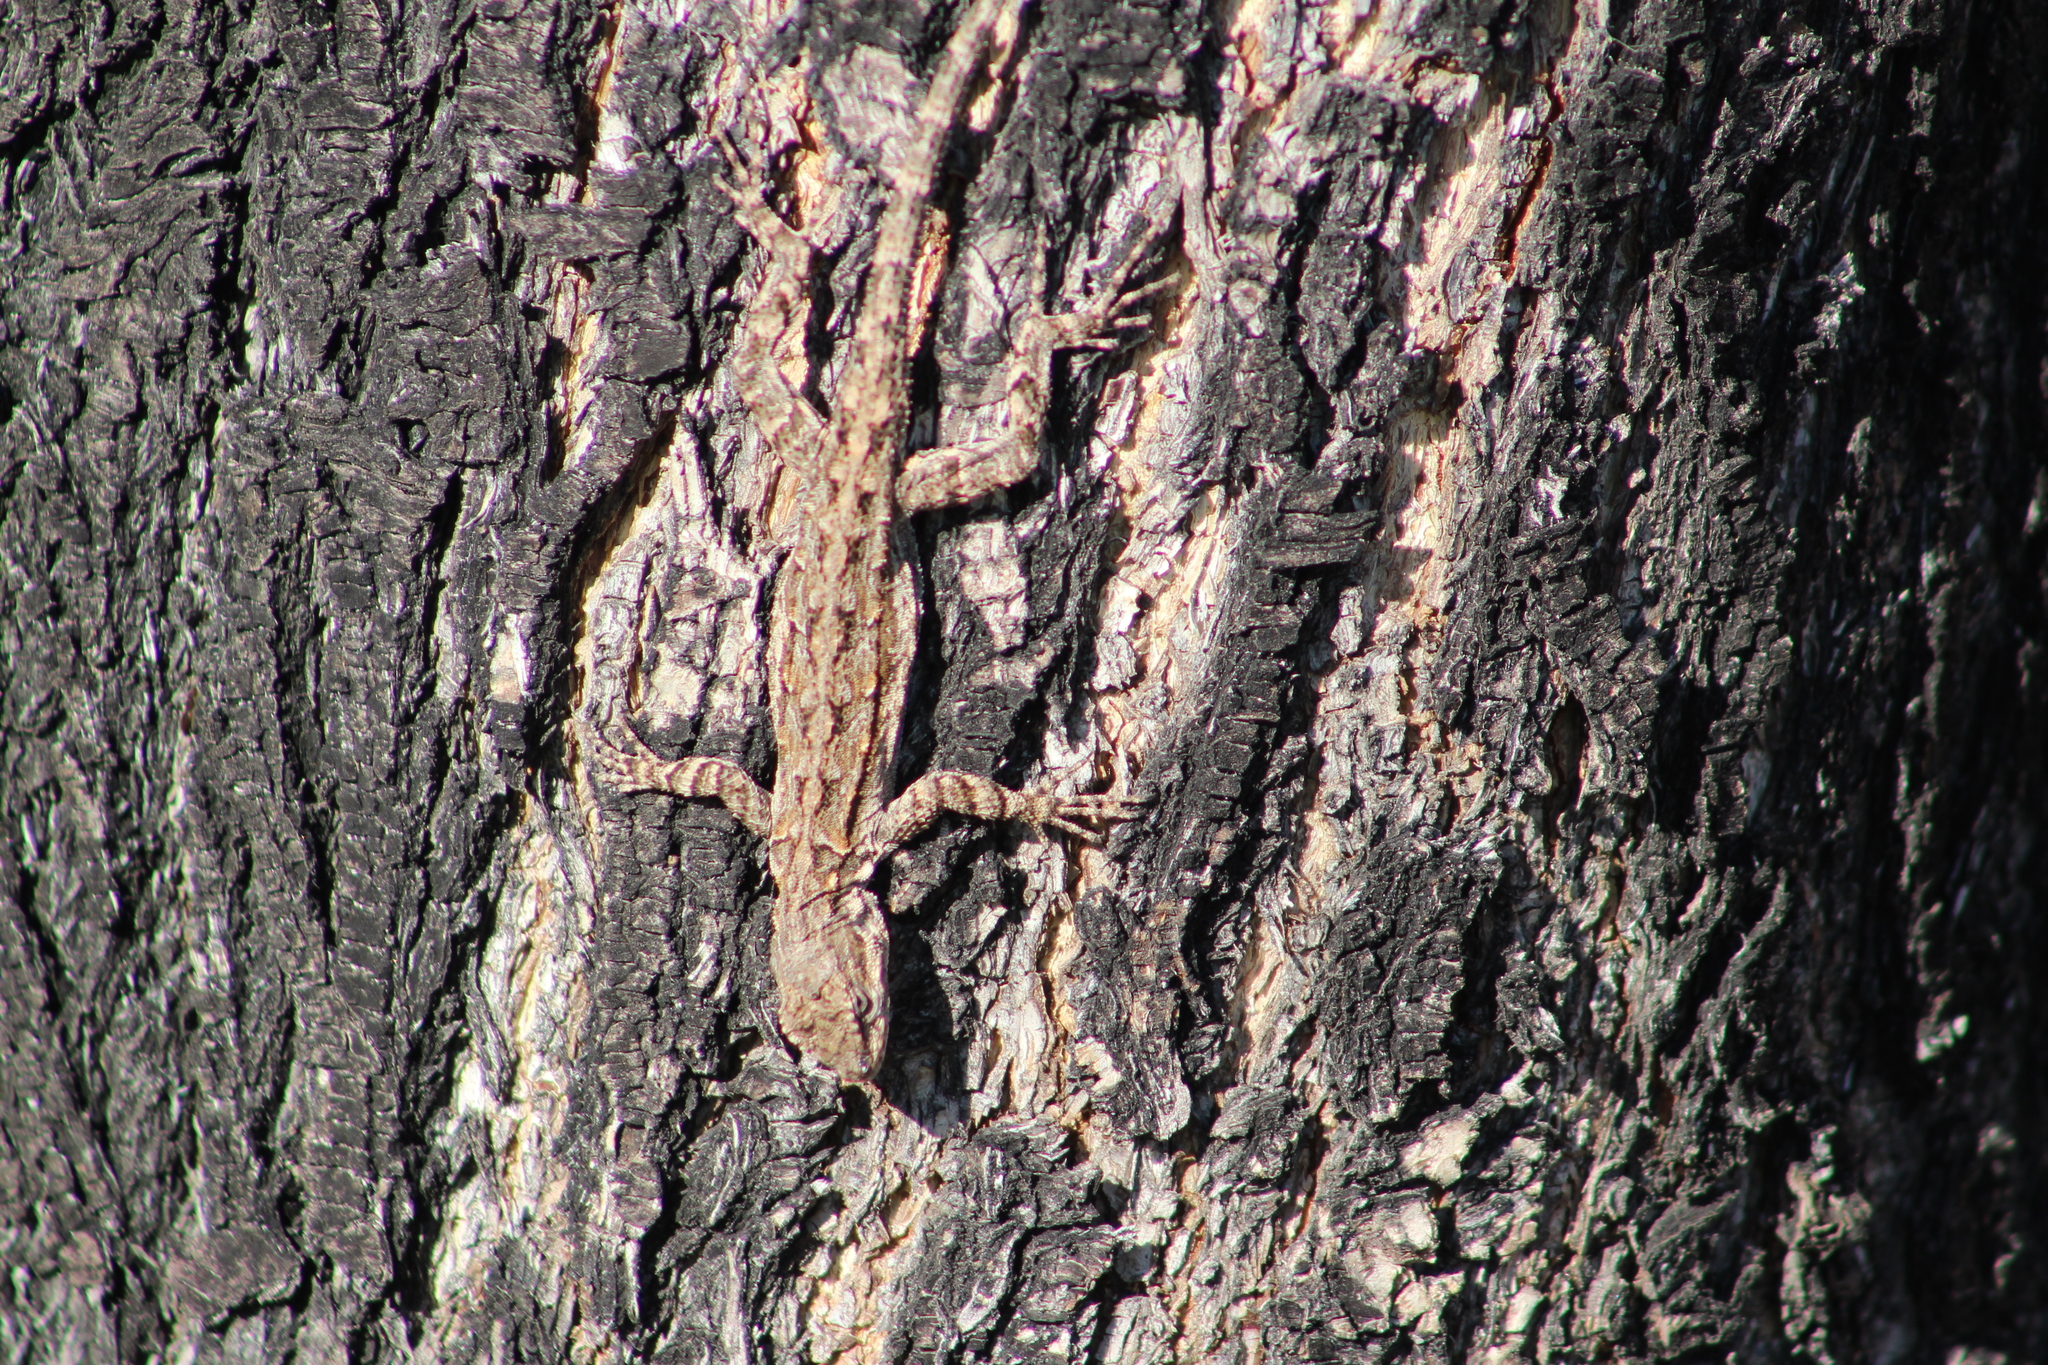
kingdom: Animalia
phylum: Chordata
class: Squamata
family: Phrynosomatidae
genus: Urosaurus
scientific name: Urosaurus ornatus
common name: Ornate tree lizard
